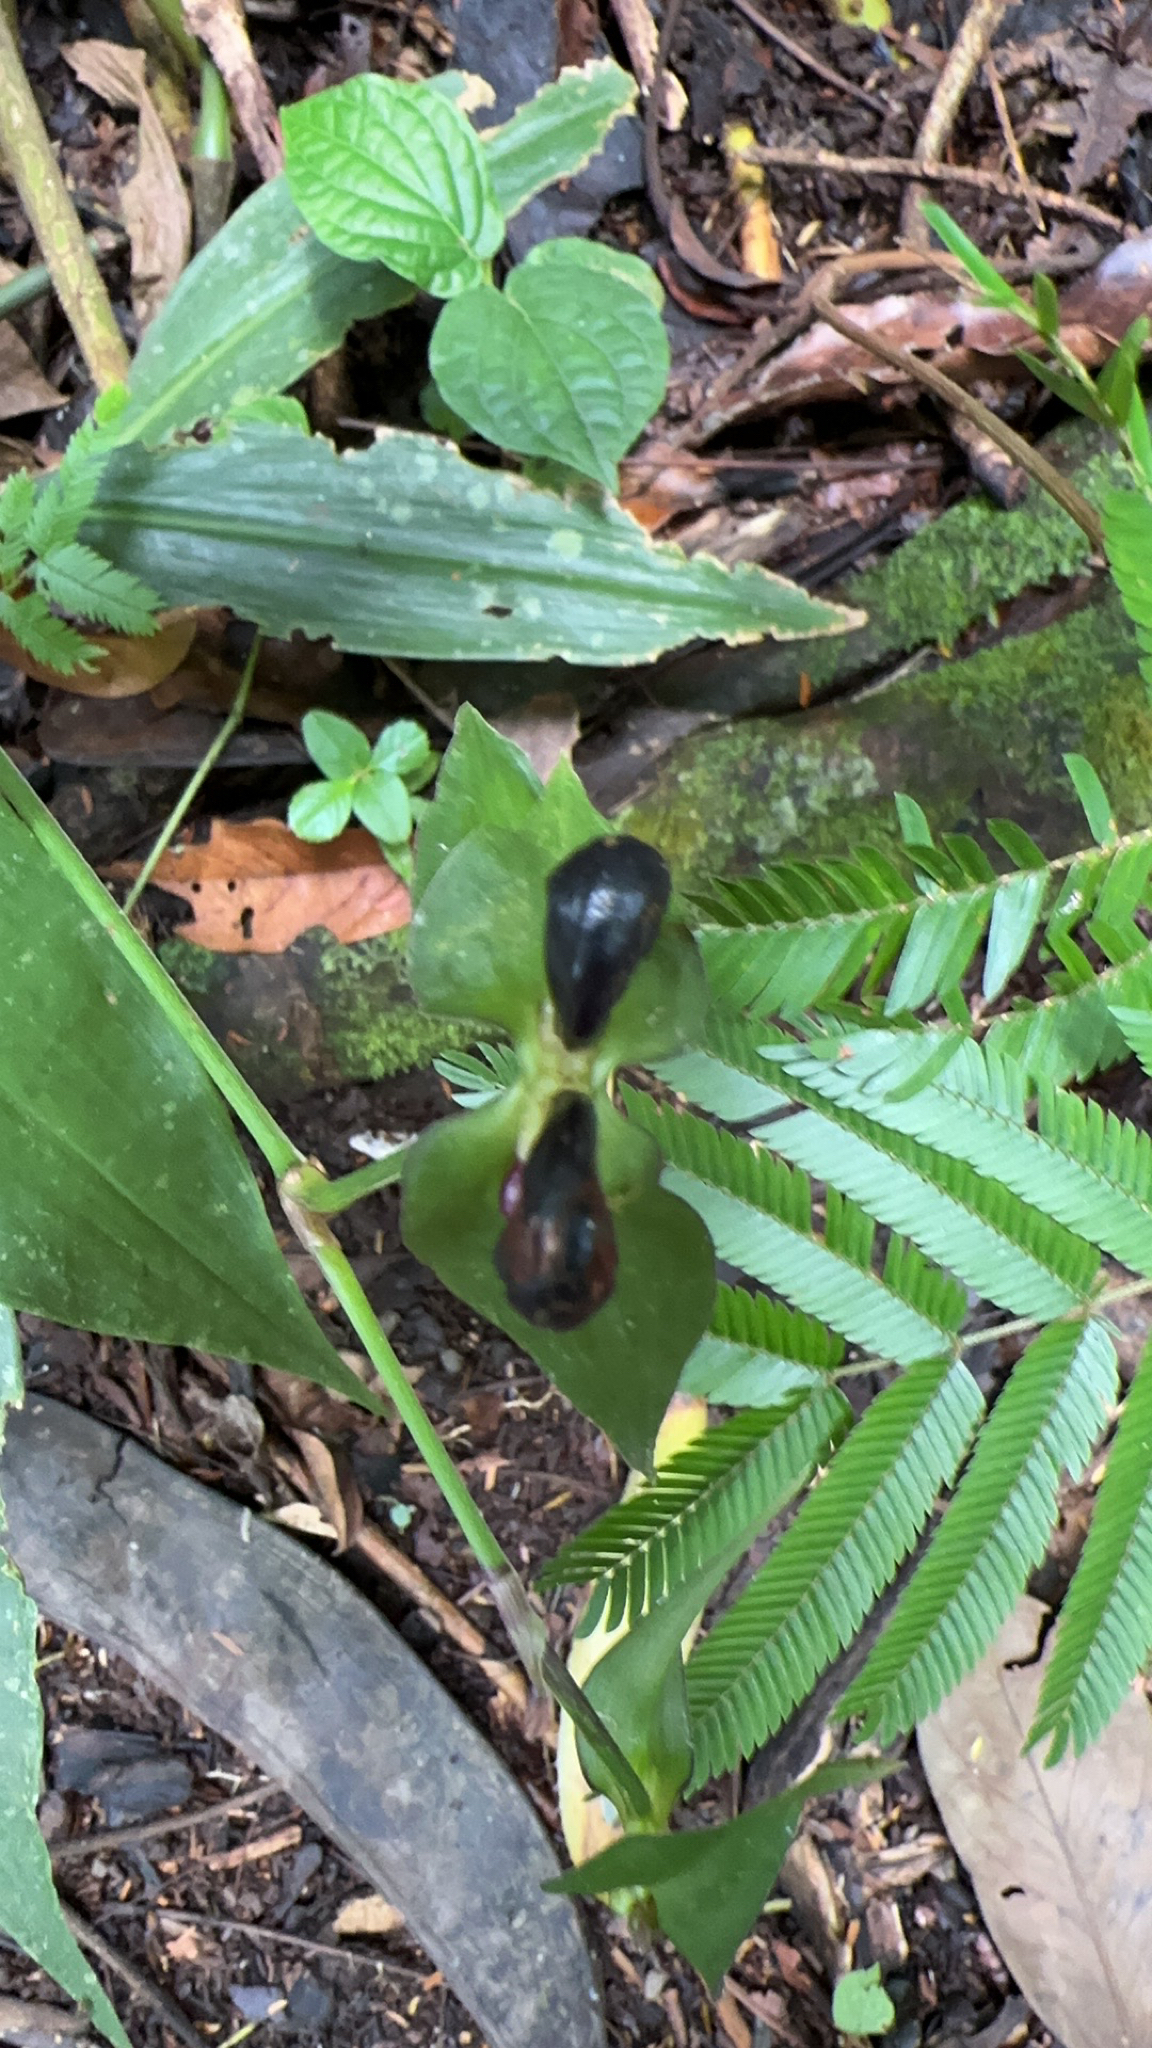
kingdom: Plantae
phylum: Tracheophyta
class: Liliopsida
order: Commelinales
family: Commelinaceae
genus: Tradescantia
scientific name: Tradescantia zanonia
